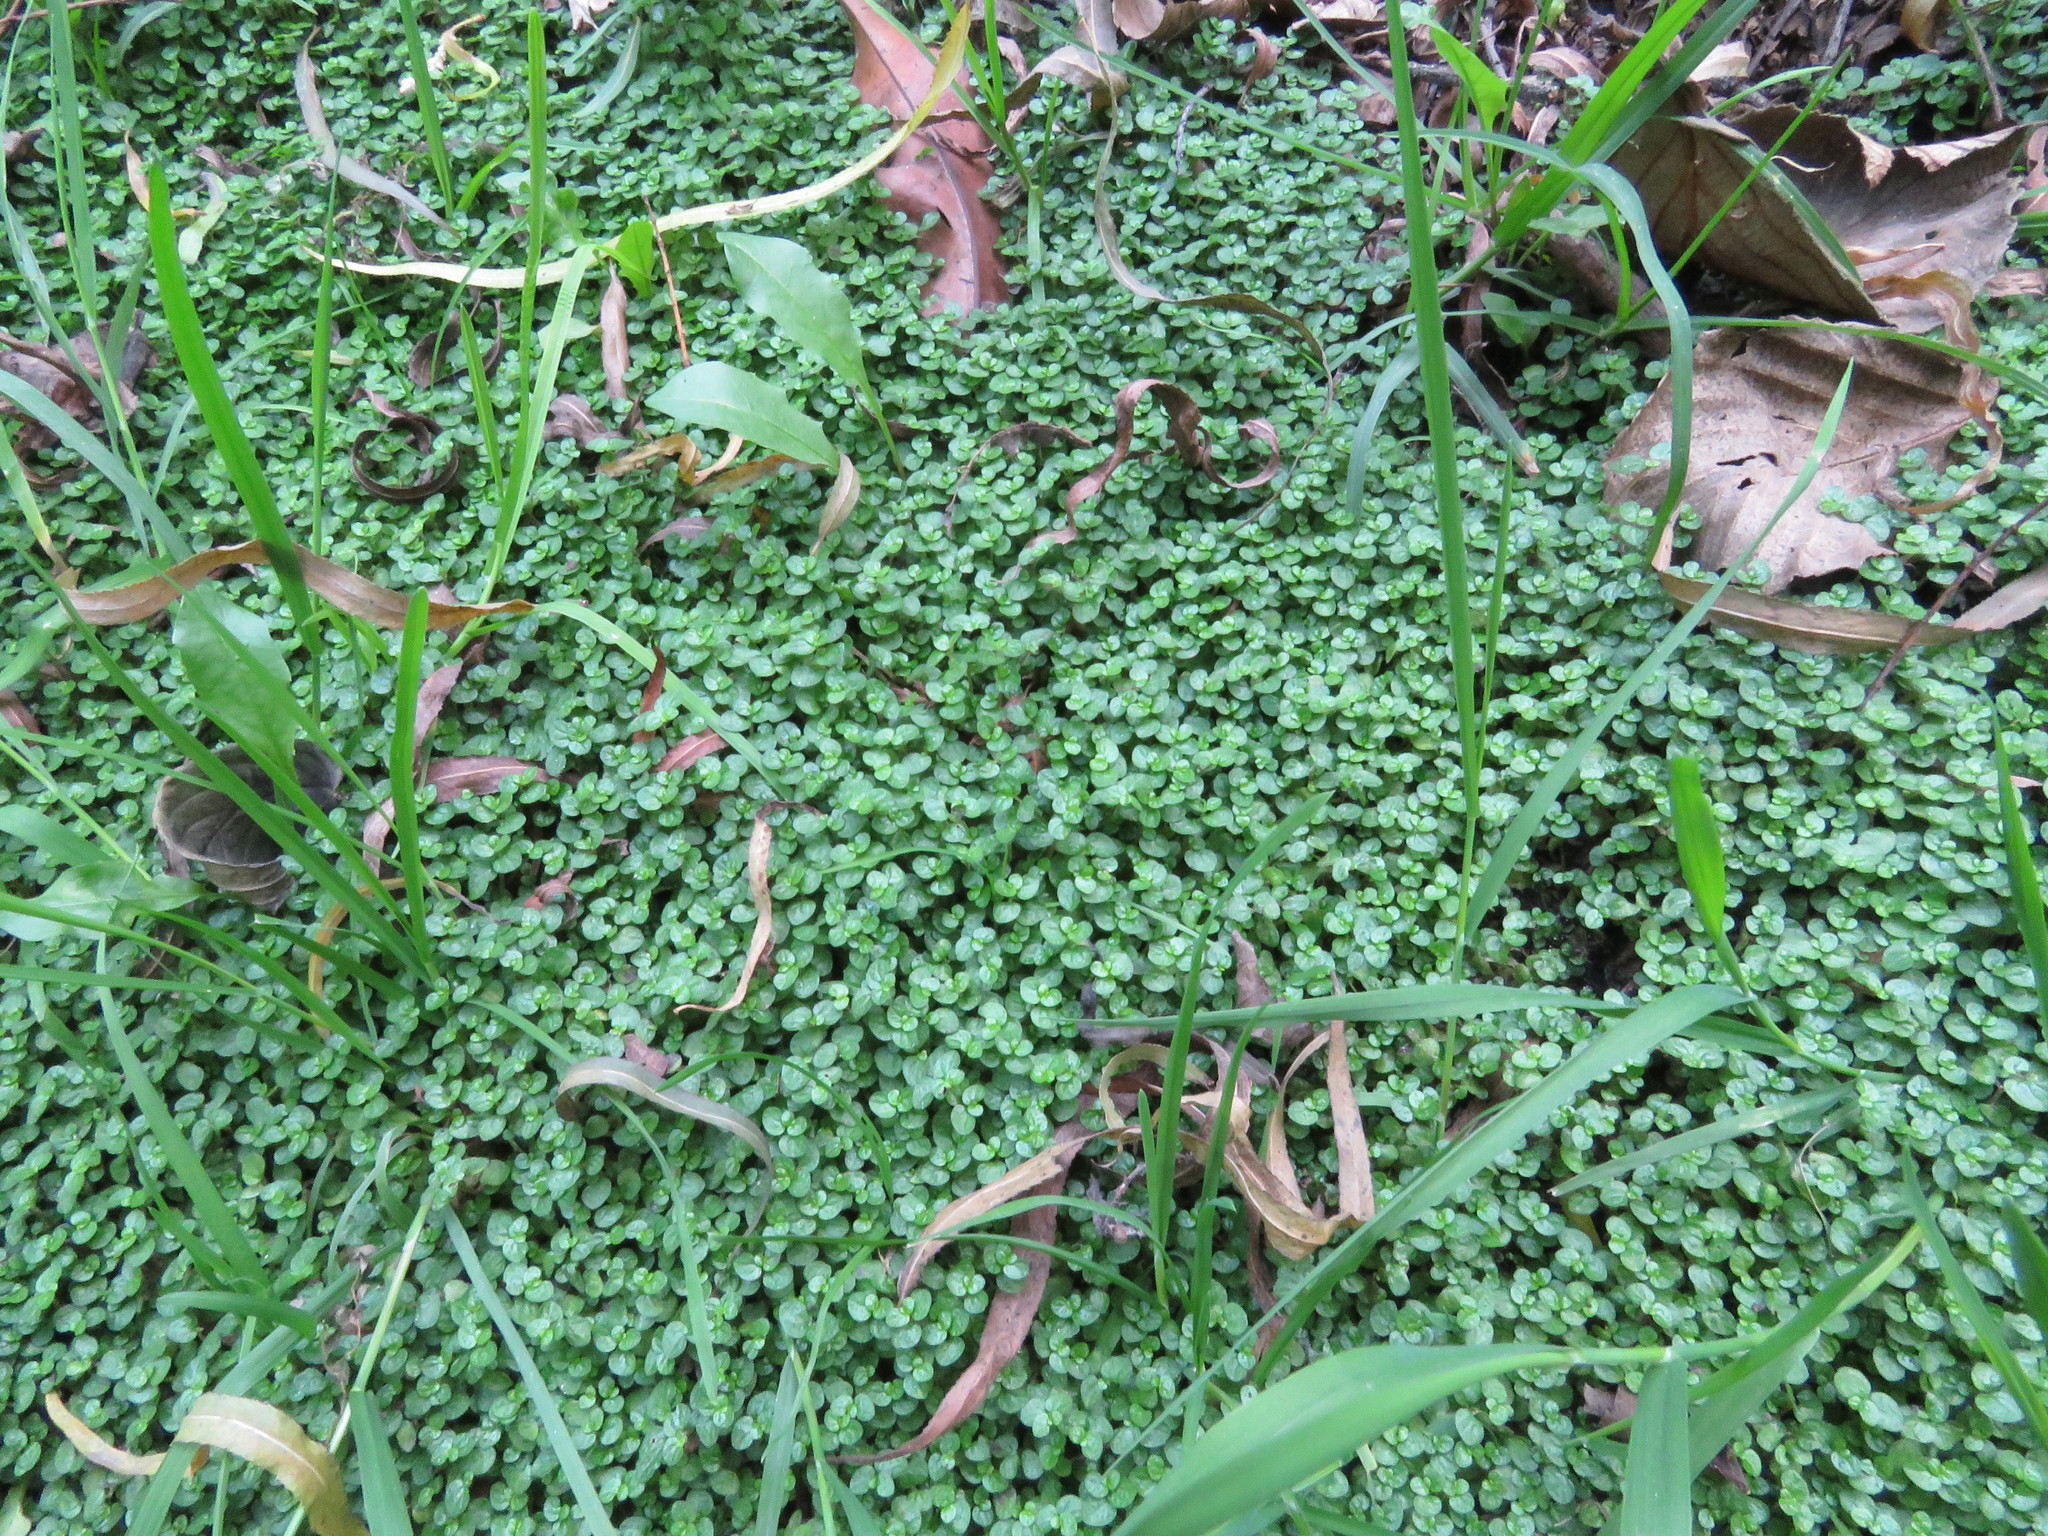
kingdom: Plantae
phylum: Tracheophyta
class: Magnoliopsida
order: Rosales
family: Urticaceae
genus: Soleirolia
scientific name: Soleirolia soleirolii
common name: Mind-your-own-business
